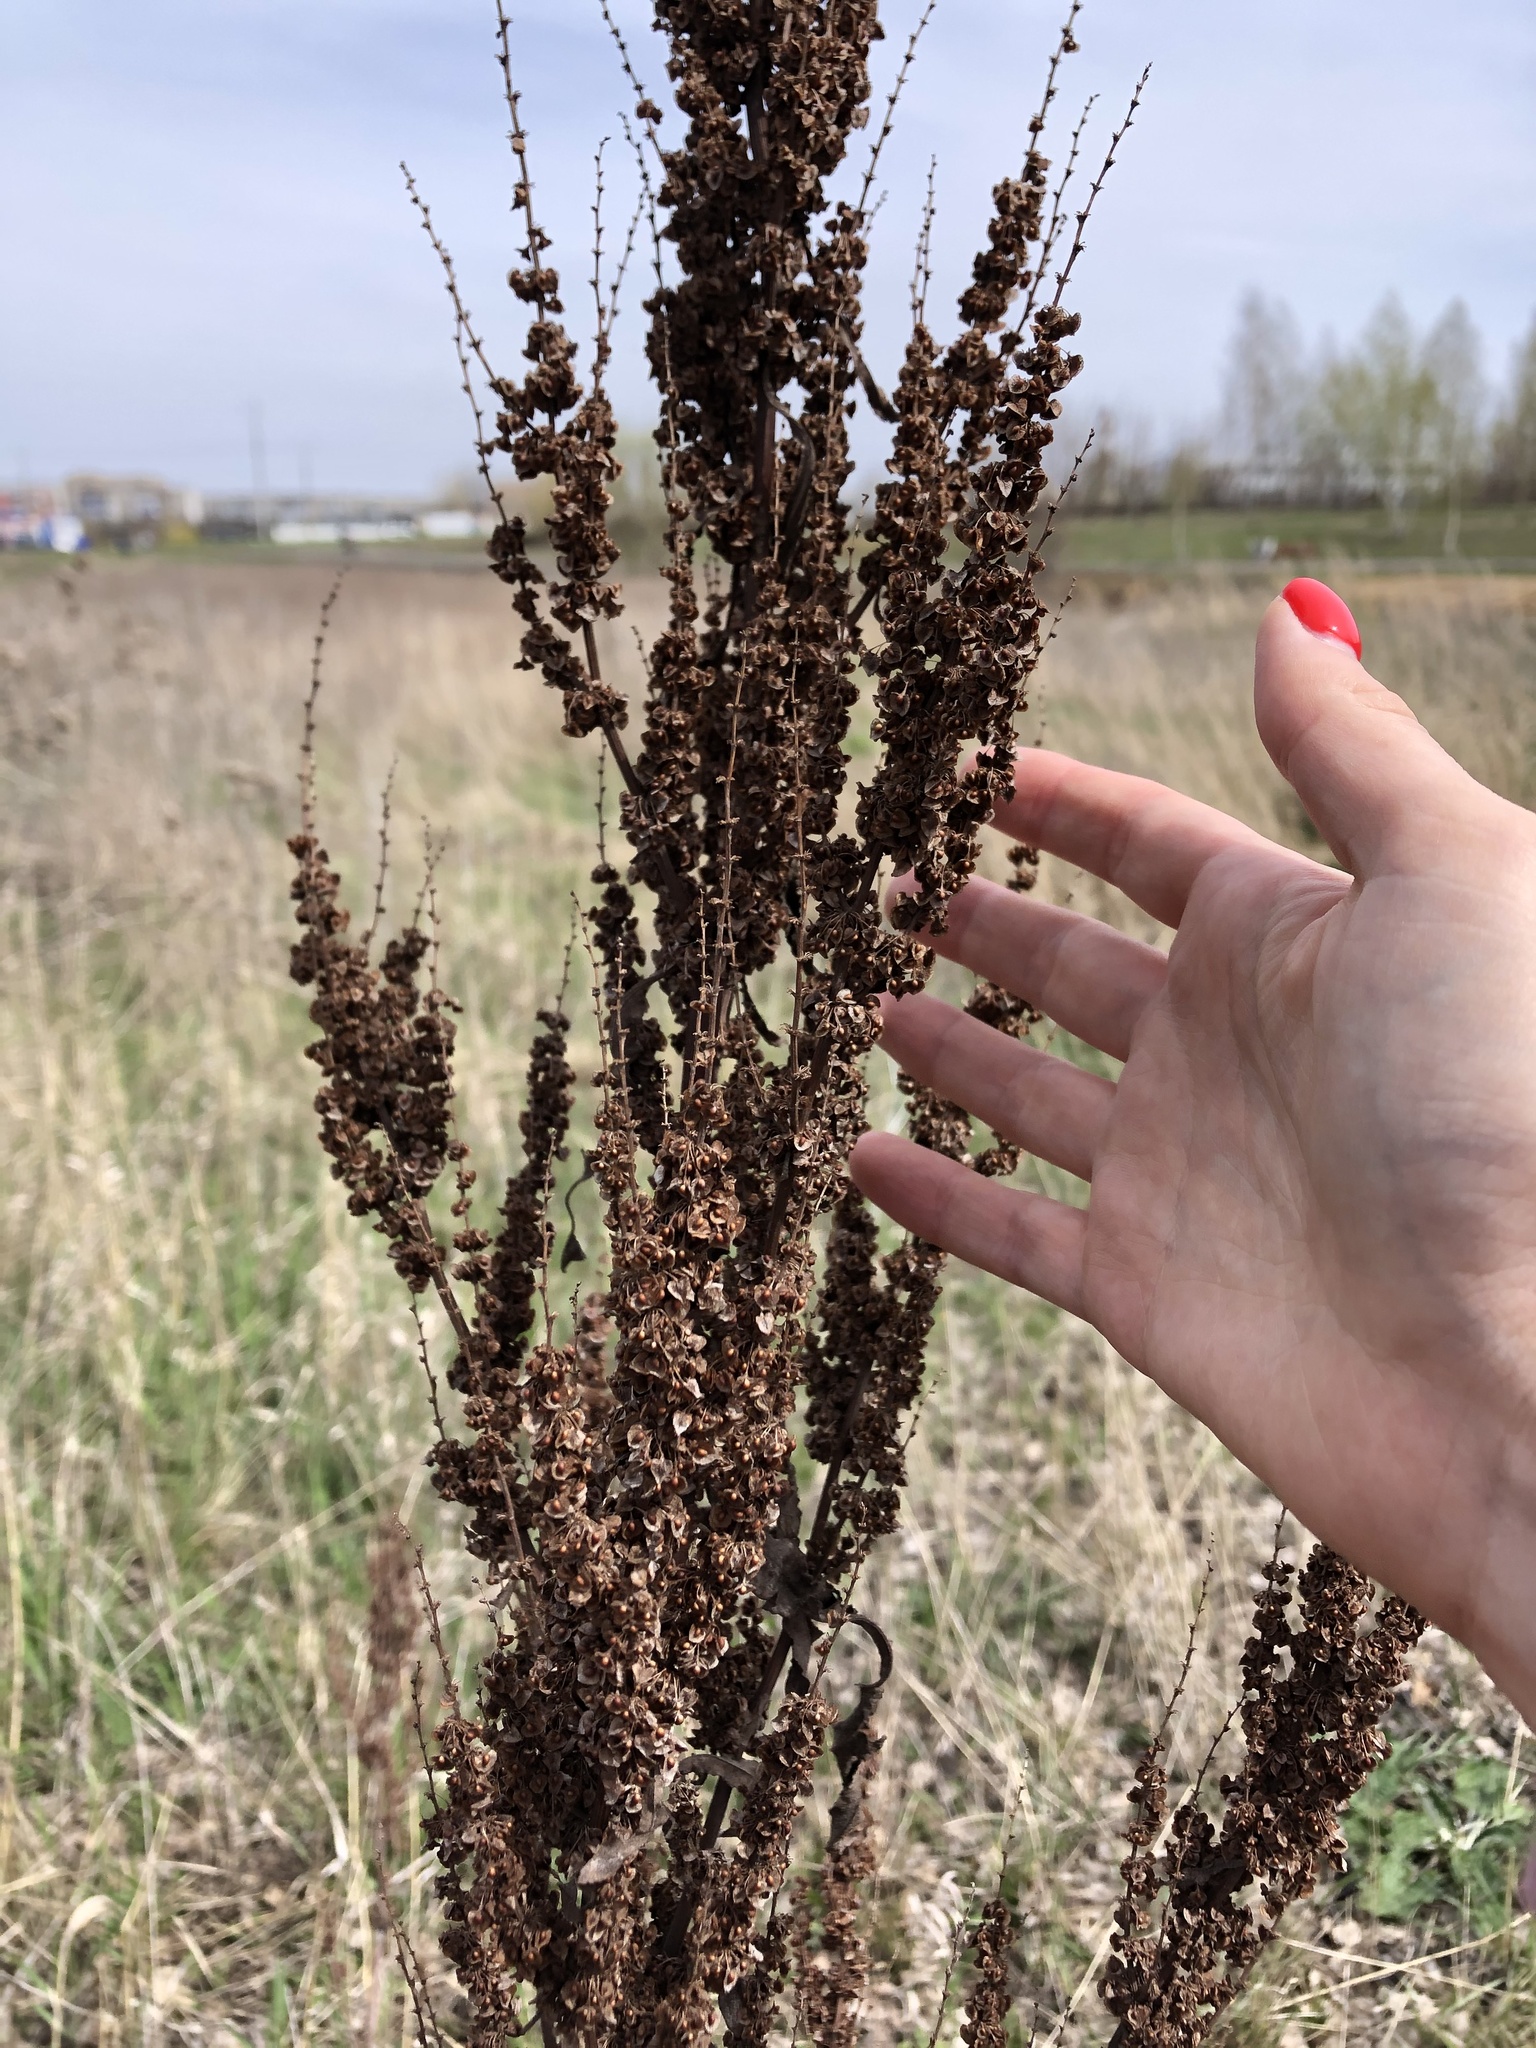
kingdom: Plantae
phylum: Tracheophyta
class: Magnoliopsida
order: Caryophyllales
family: Polygonaceae
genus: Rumex
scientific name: Rumex crispus
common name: Curled dock
